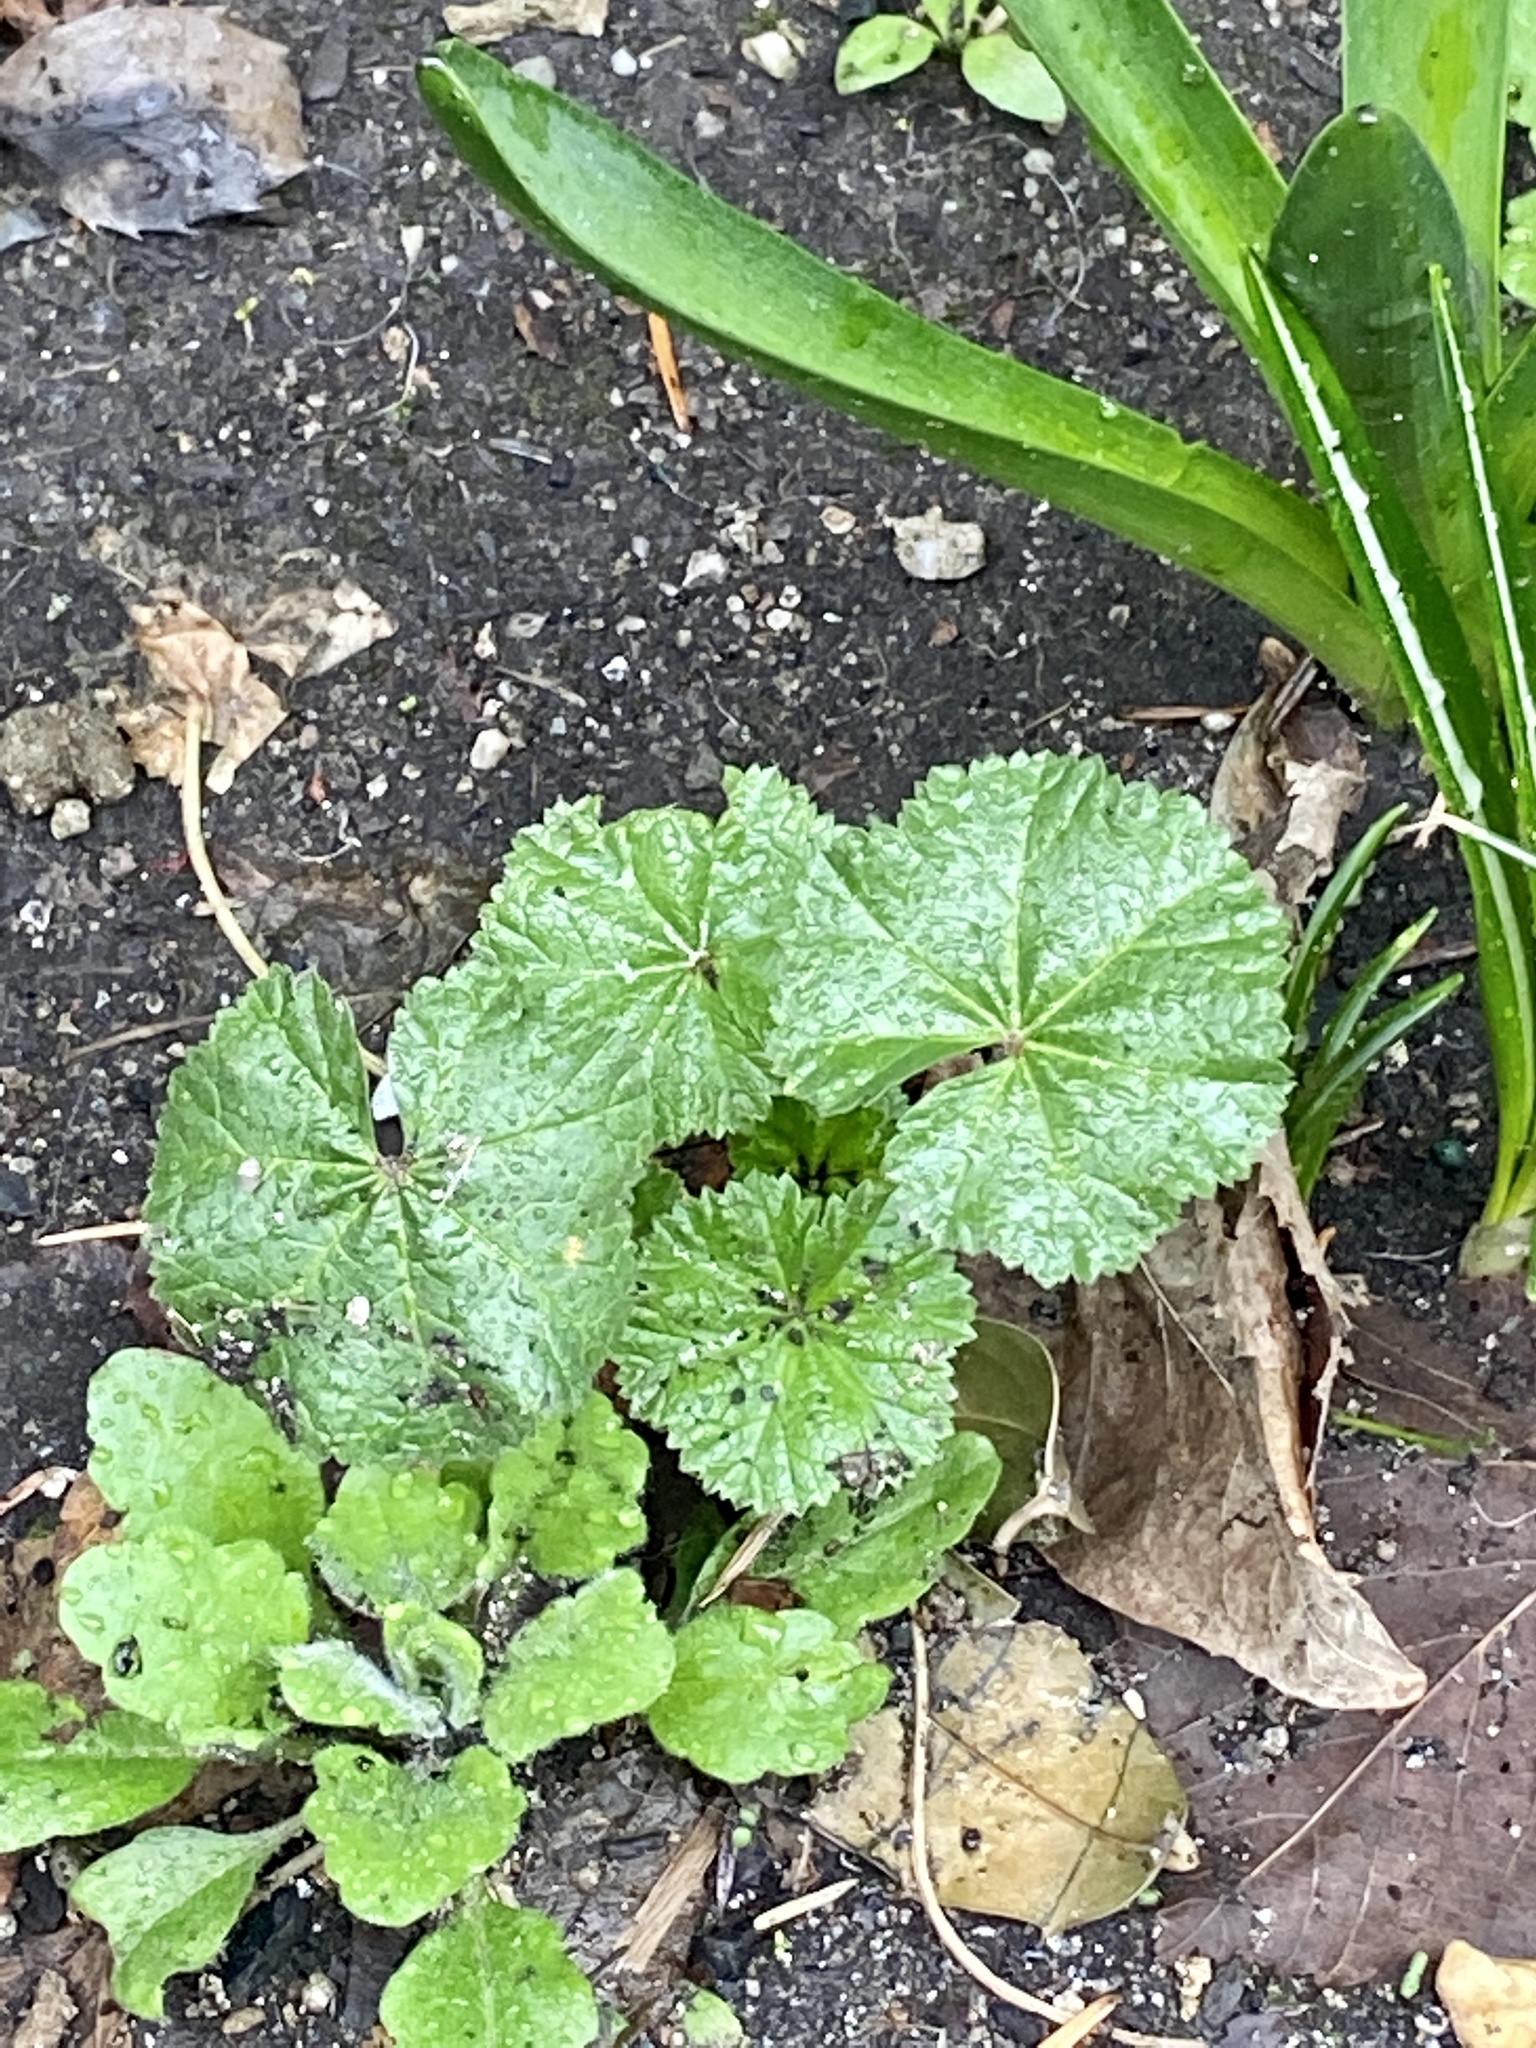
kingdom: Plantae
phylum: Tracheophyta
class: Magnoliopsida
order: Malvales
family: Malvaceae
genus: Malva
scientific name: Malva neglecta
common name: Common mallow
